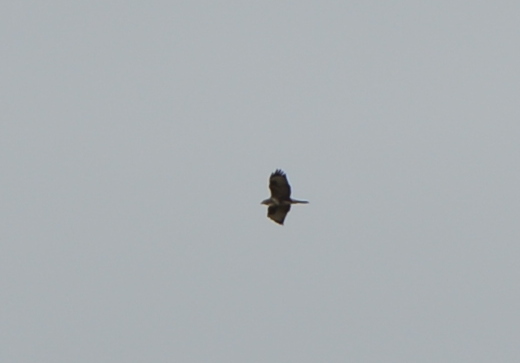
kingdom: Animalia
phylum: Chordata
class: Aves
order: Accipitriformes
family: Accipitridae
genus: Buteo
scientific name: Buteo buteo
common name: Common buzzard
